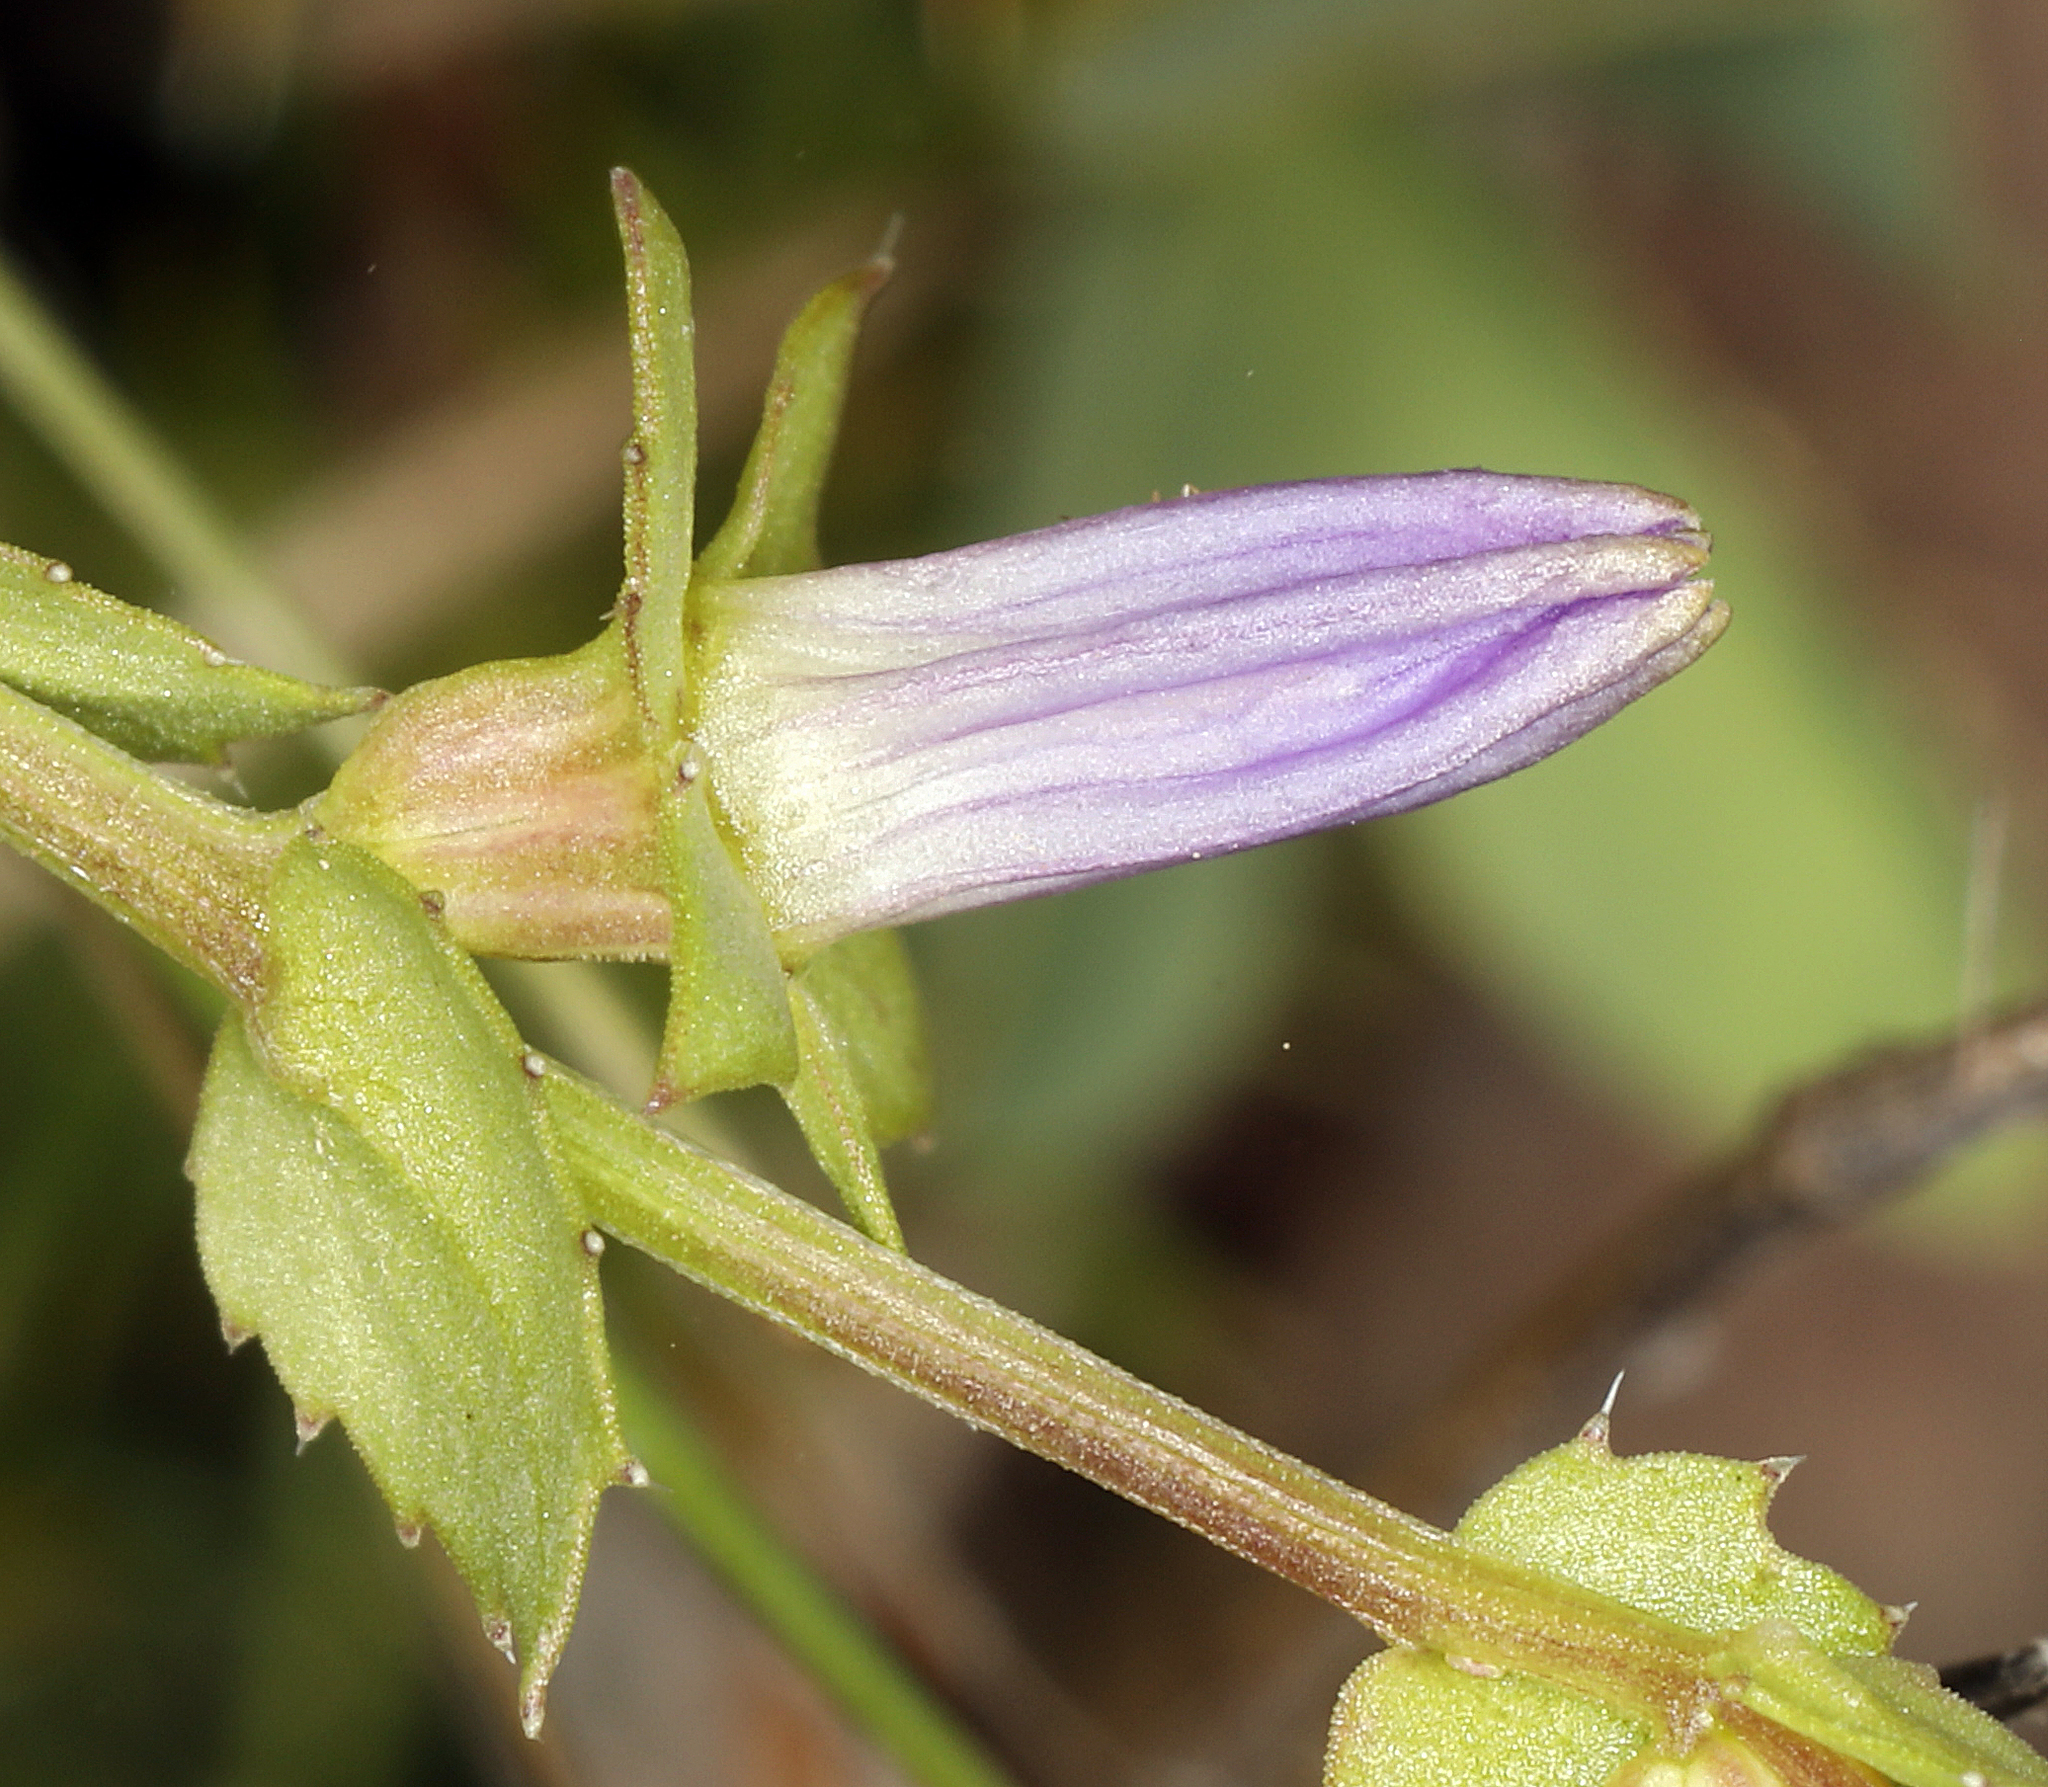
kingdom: Plantae
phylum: Tracheophyta
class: Magnoliopsida
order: Asterales
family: Campanulaceae
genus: Heterocodon
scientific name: Heterocodon rariflorum
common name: Rareflower heterocodon
